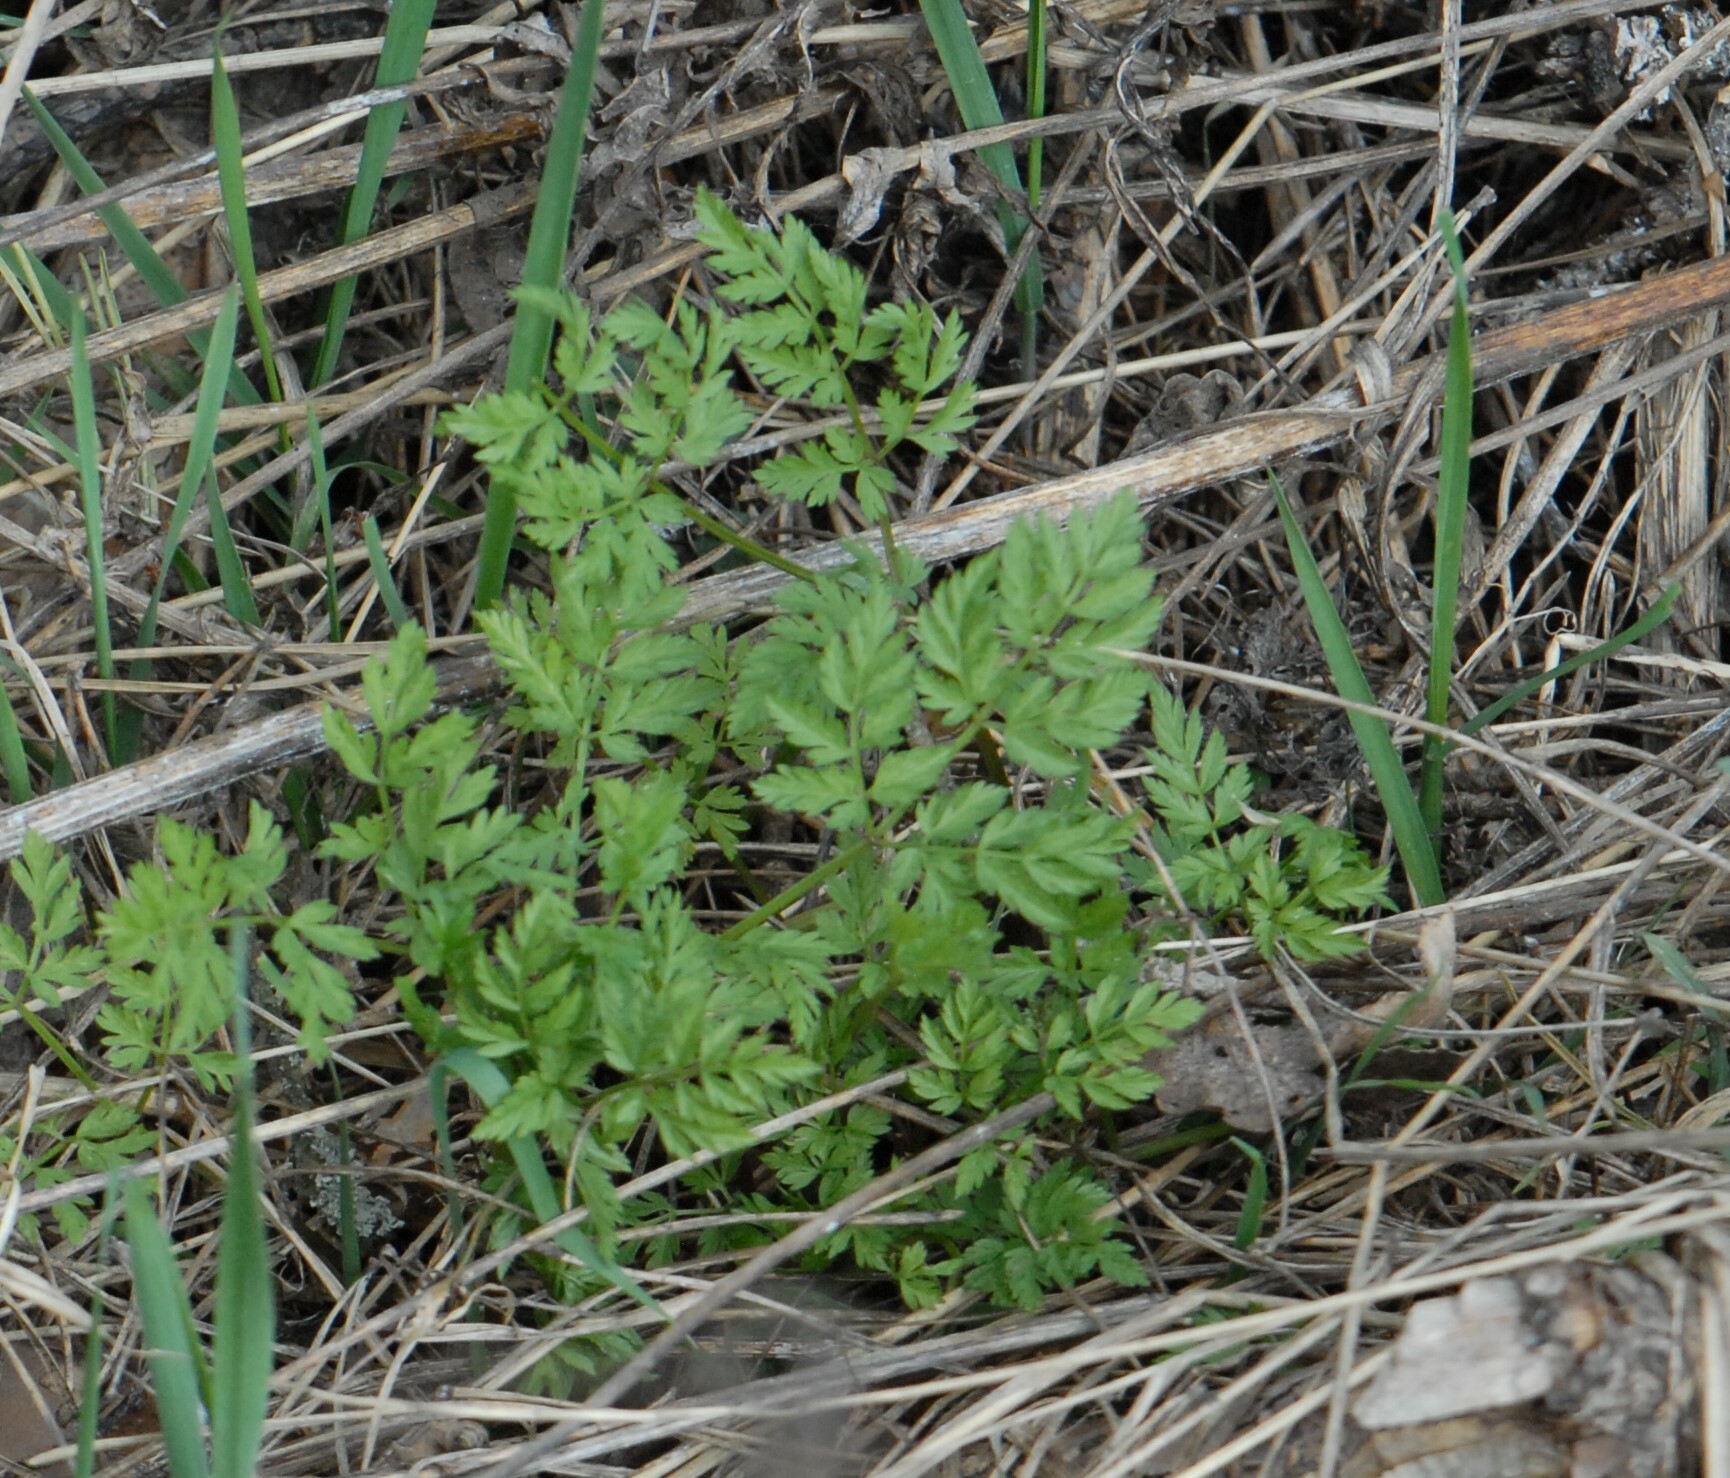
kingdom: Plantae
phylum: Tracheophyta
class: Magnoliopsida
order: Apiales
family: Apiaceae
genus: Anthriscus
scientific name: Anthriscus sylvestris
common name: Cow parsley
